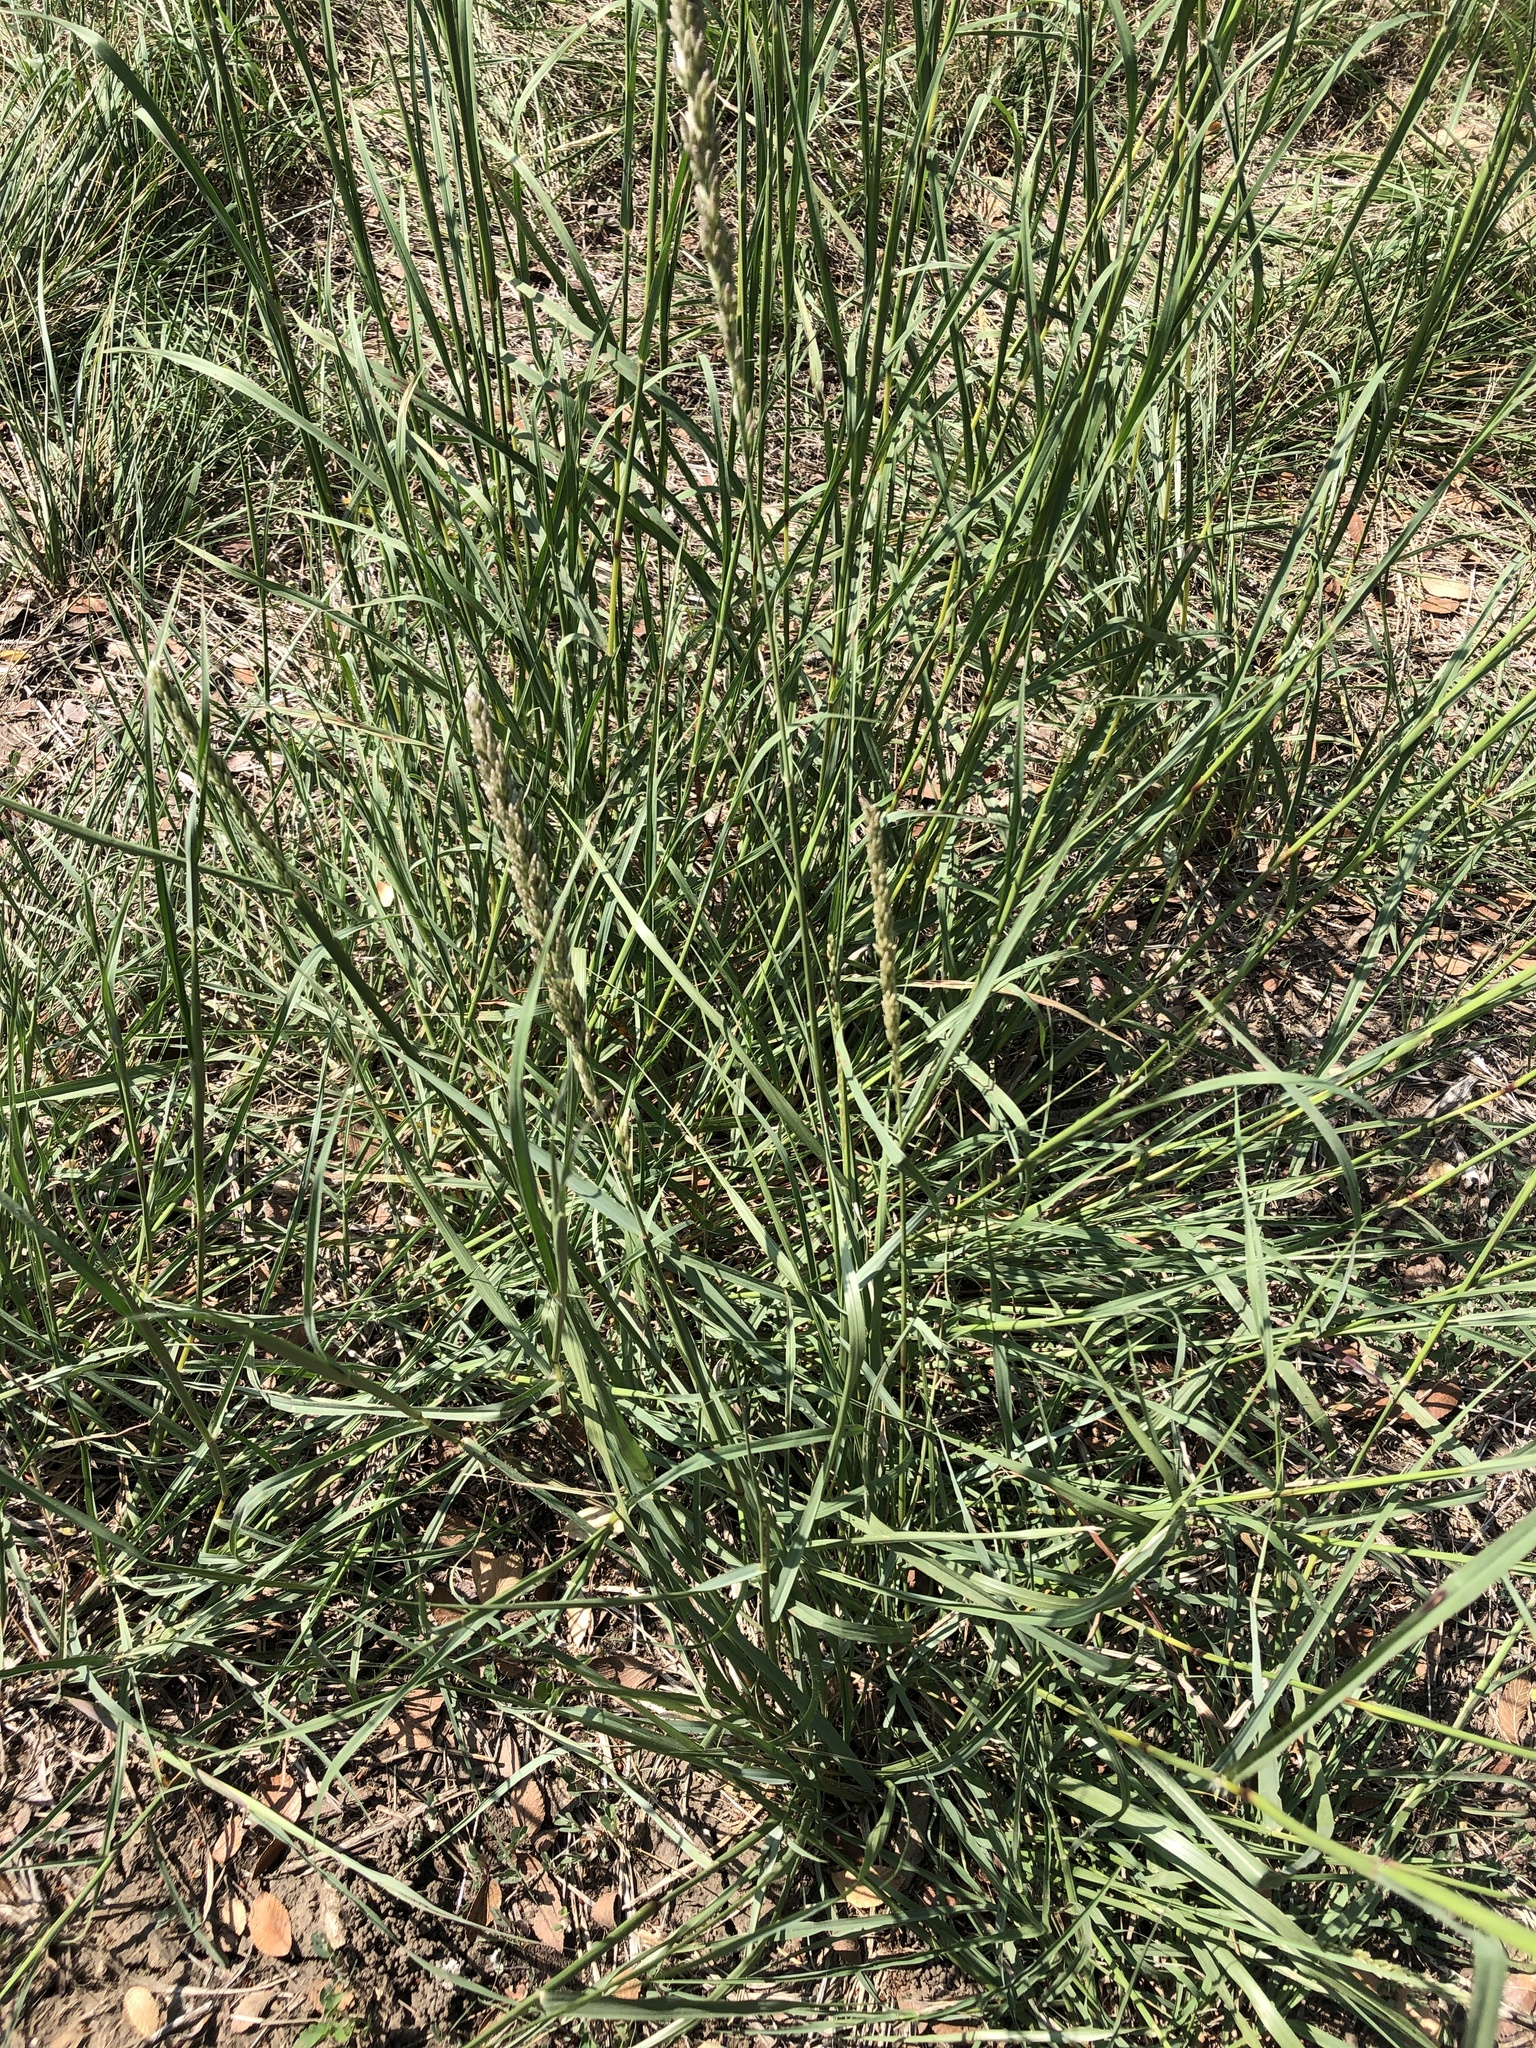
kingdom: Plantae
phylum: Tracheophyta
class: Liliopsida
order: Poales
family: Poaceae
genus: Tridens
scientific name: Tridens albescens
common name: White tridens
